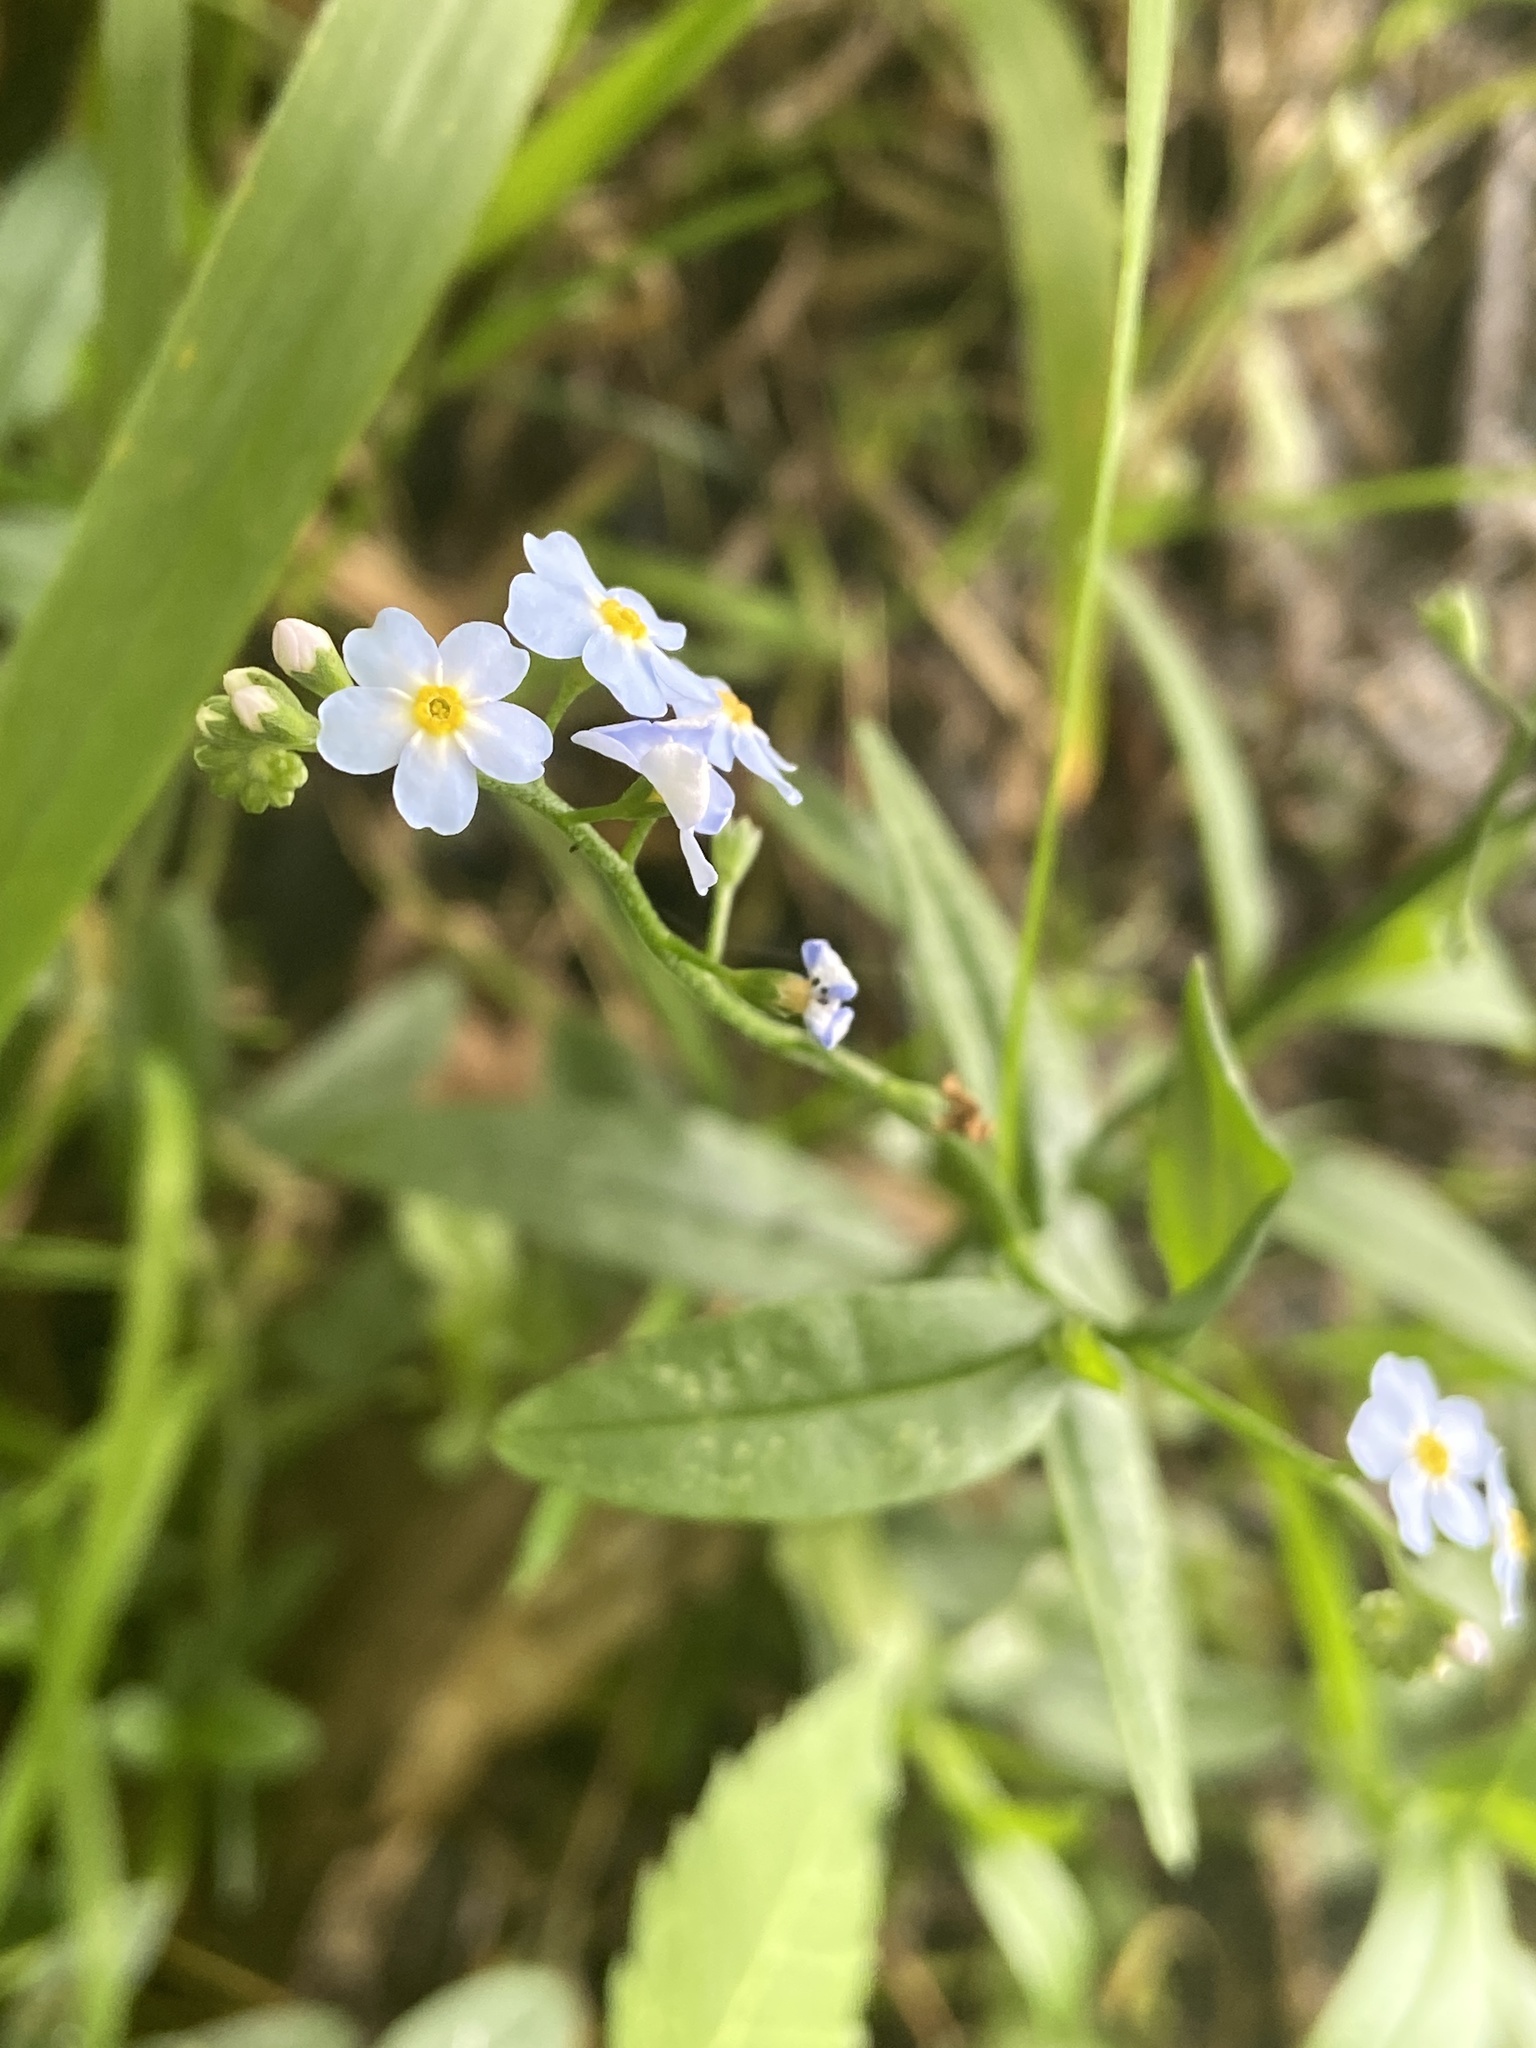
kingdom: Plantae
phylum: Tracheophyta
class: Magnoliopsida
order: Boraginales
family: Boraginaceae
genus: Myosotis
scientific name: Myosotis scorpioides
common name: Water forget-me-not
